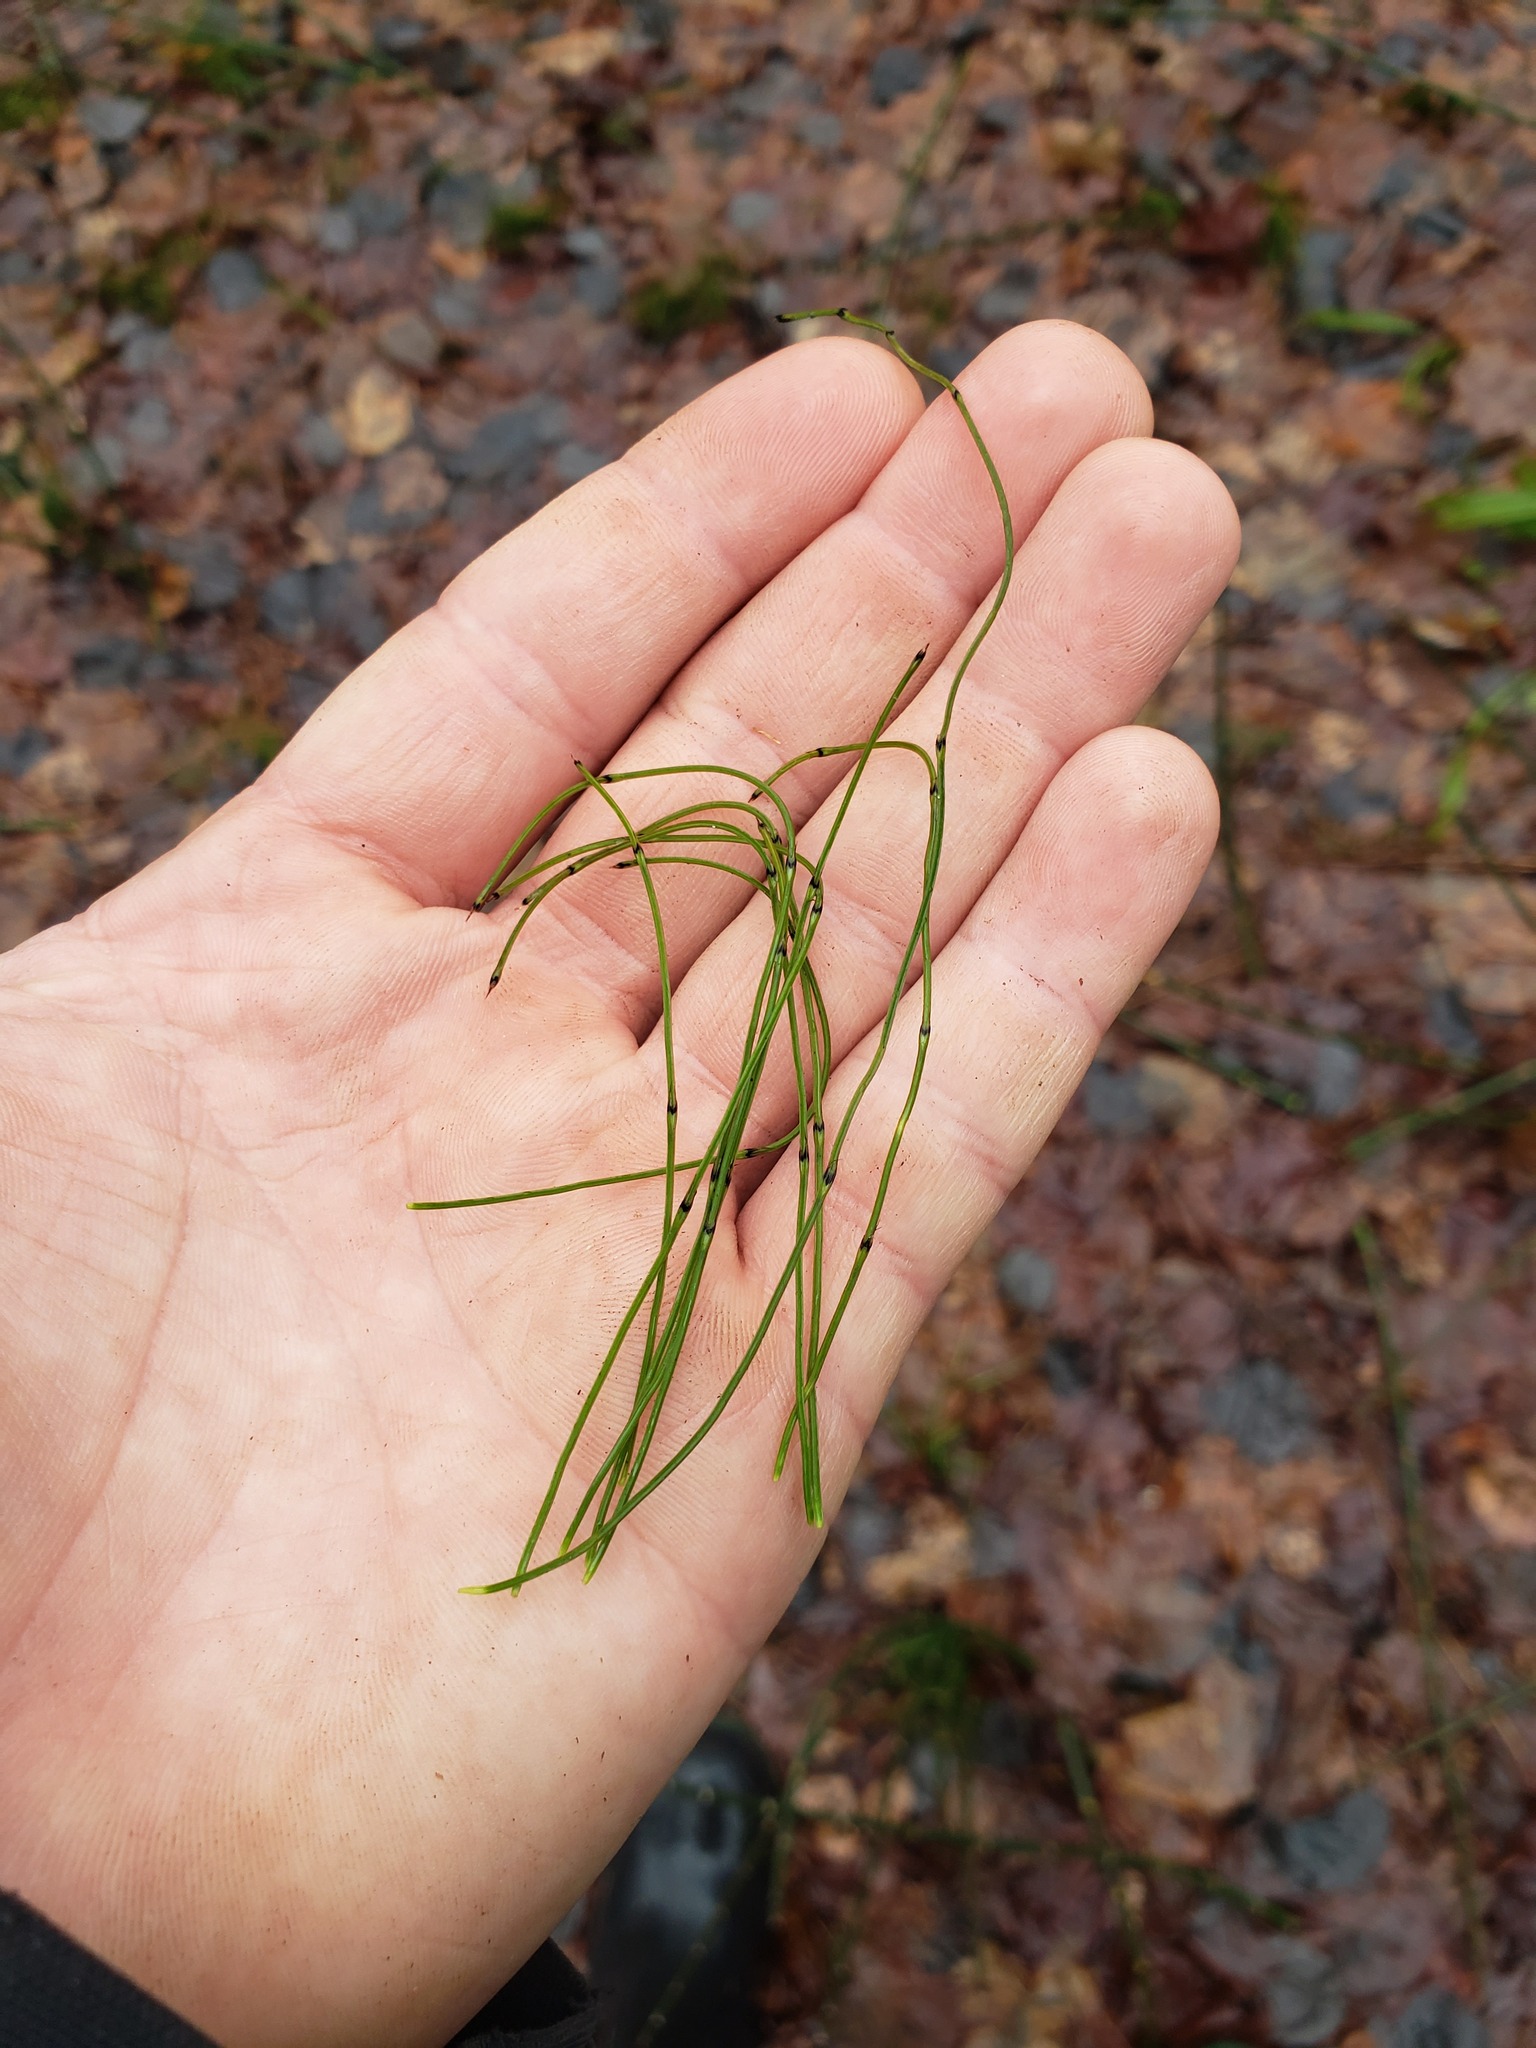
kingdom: Plantae
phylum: Tracheophyta
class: Polypodiopsida
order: Equisetales
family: Equisetaceae
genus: Equisetum
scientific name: Equisetum scirpoides
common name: Delicate horsetail
